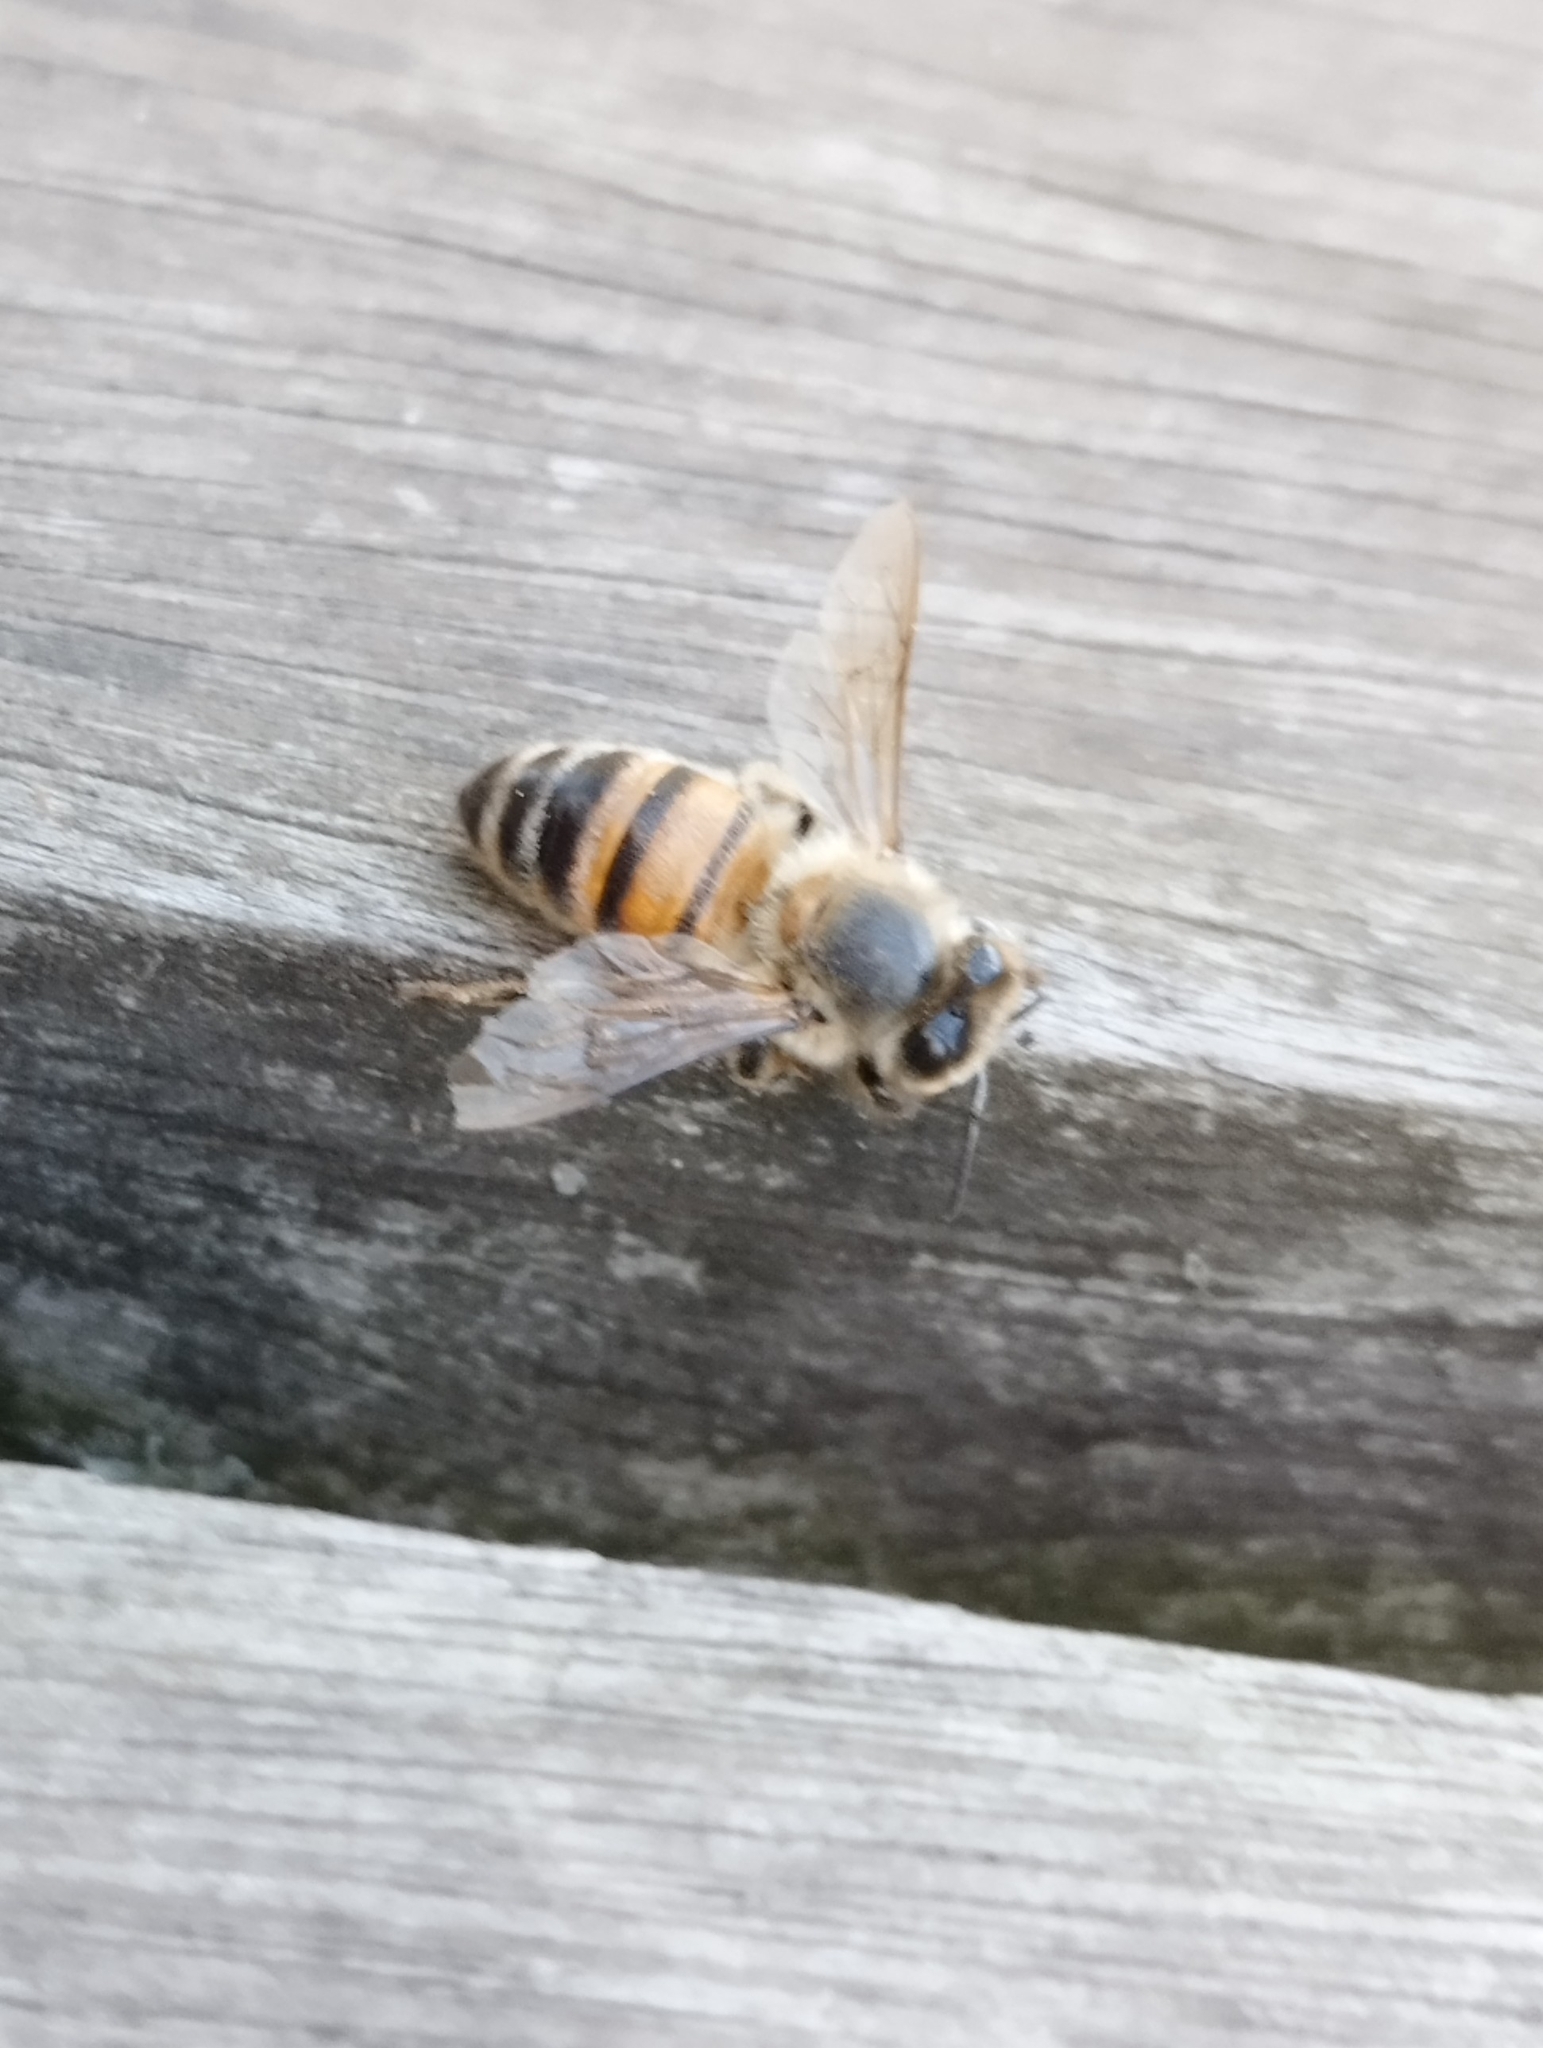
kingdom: Animalia
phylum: Arthropoda
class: Insecta
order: Hymenoptera
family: Apidae
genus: Apis
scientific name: Apis mellifera
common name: Honey bee
